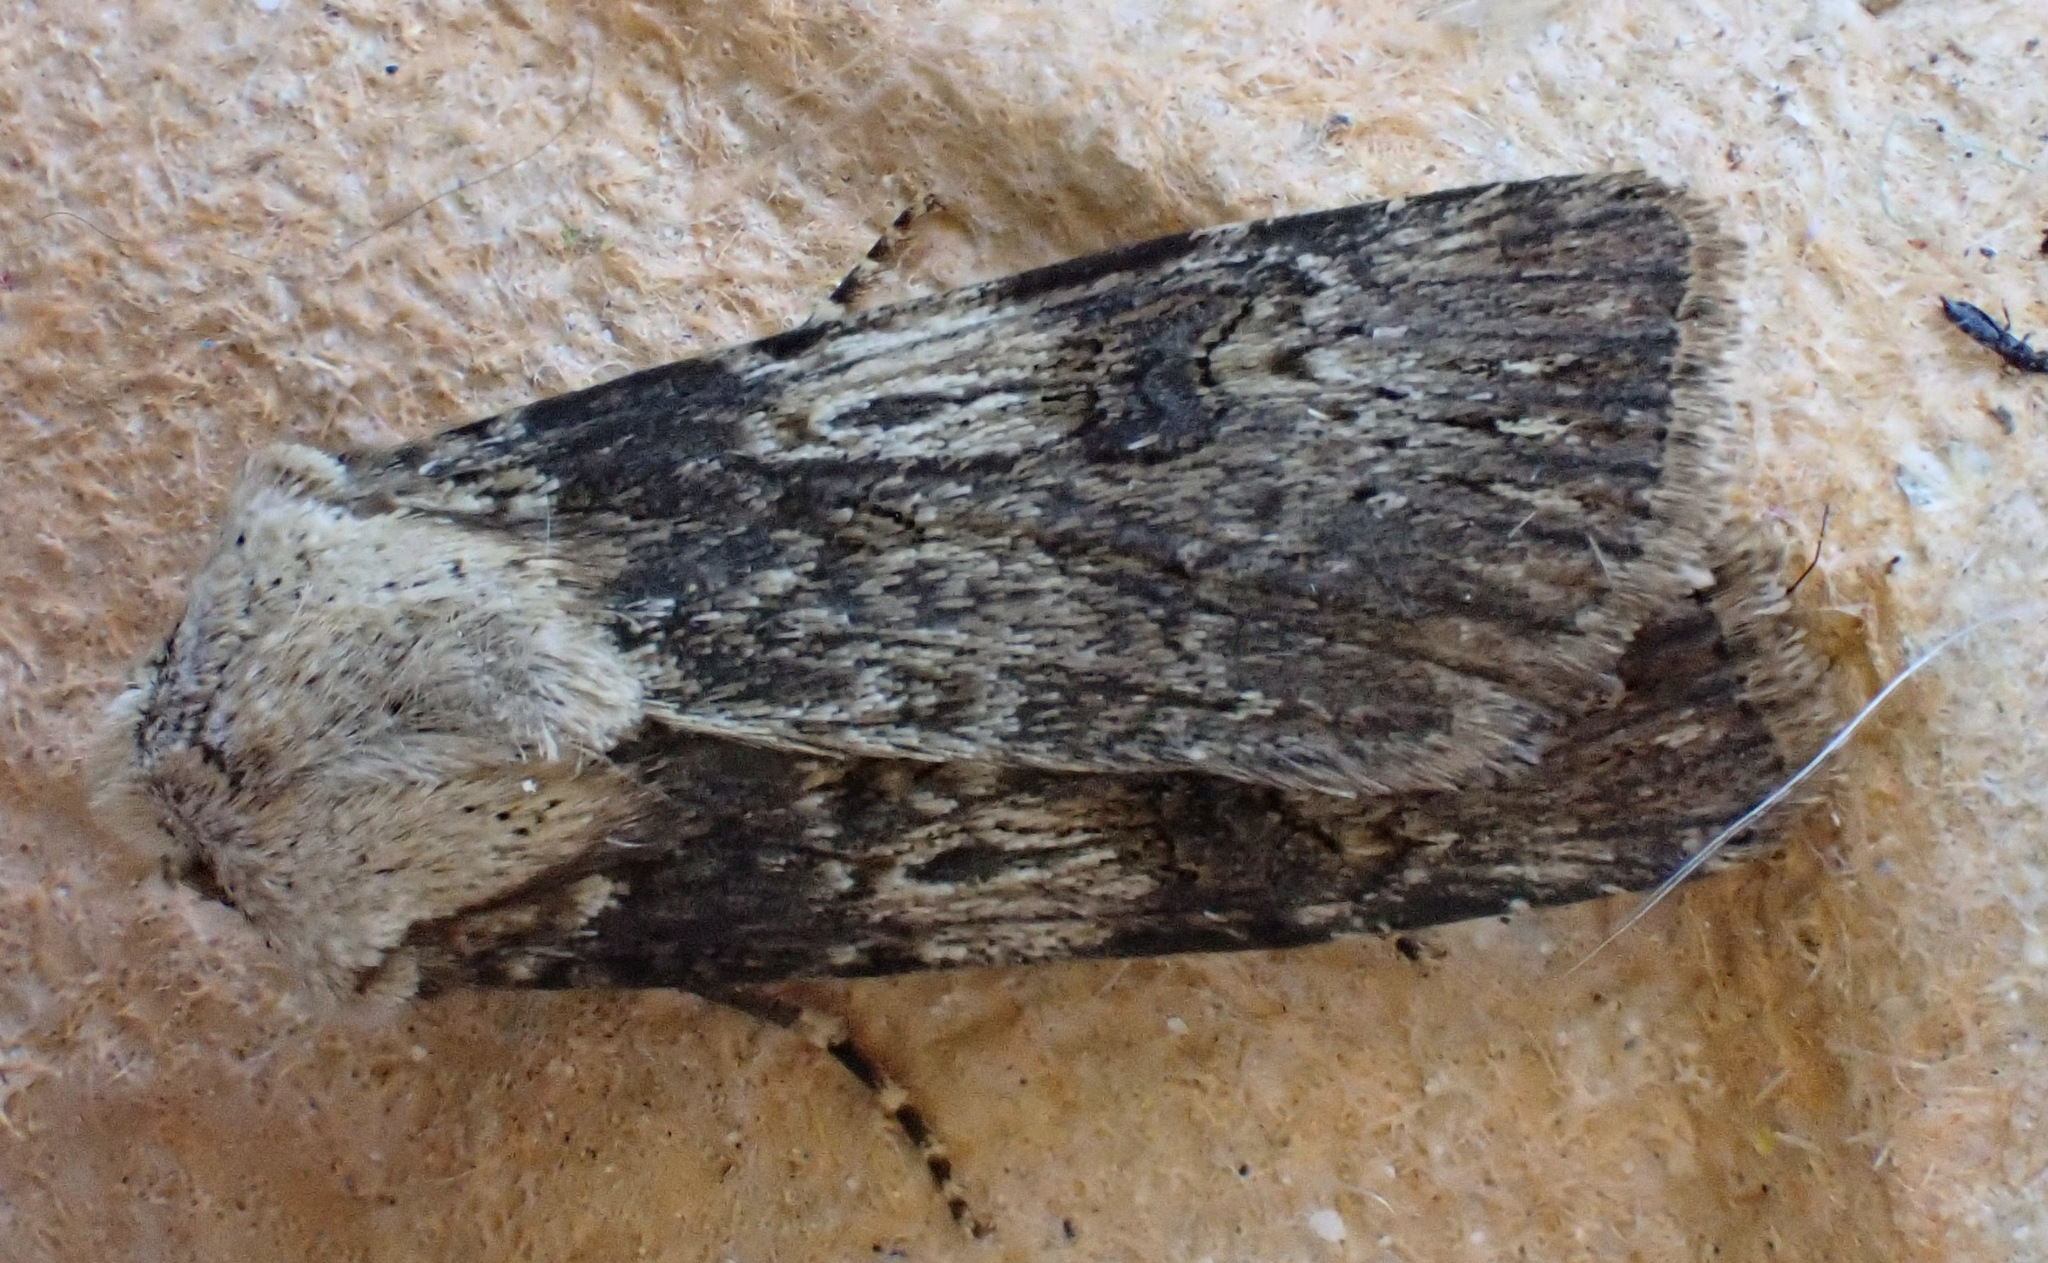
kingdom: Animalia
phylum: Arthropoda
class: Insecta
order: Lepidoptera
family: Noctuidae
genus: Agrotis
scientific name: Agrotis puta
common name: Shuttle-shaped dart
